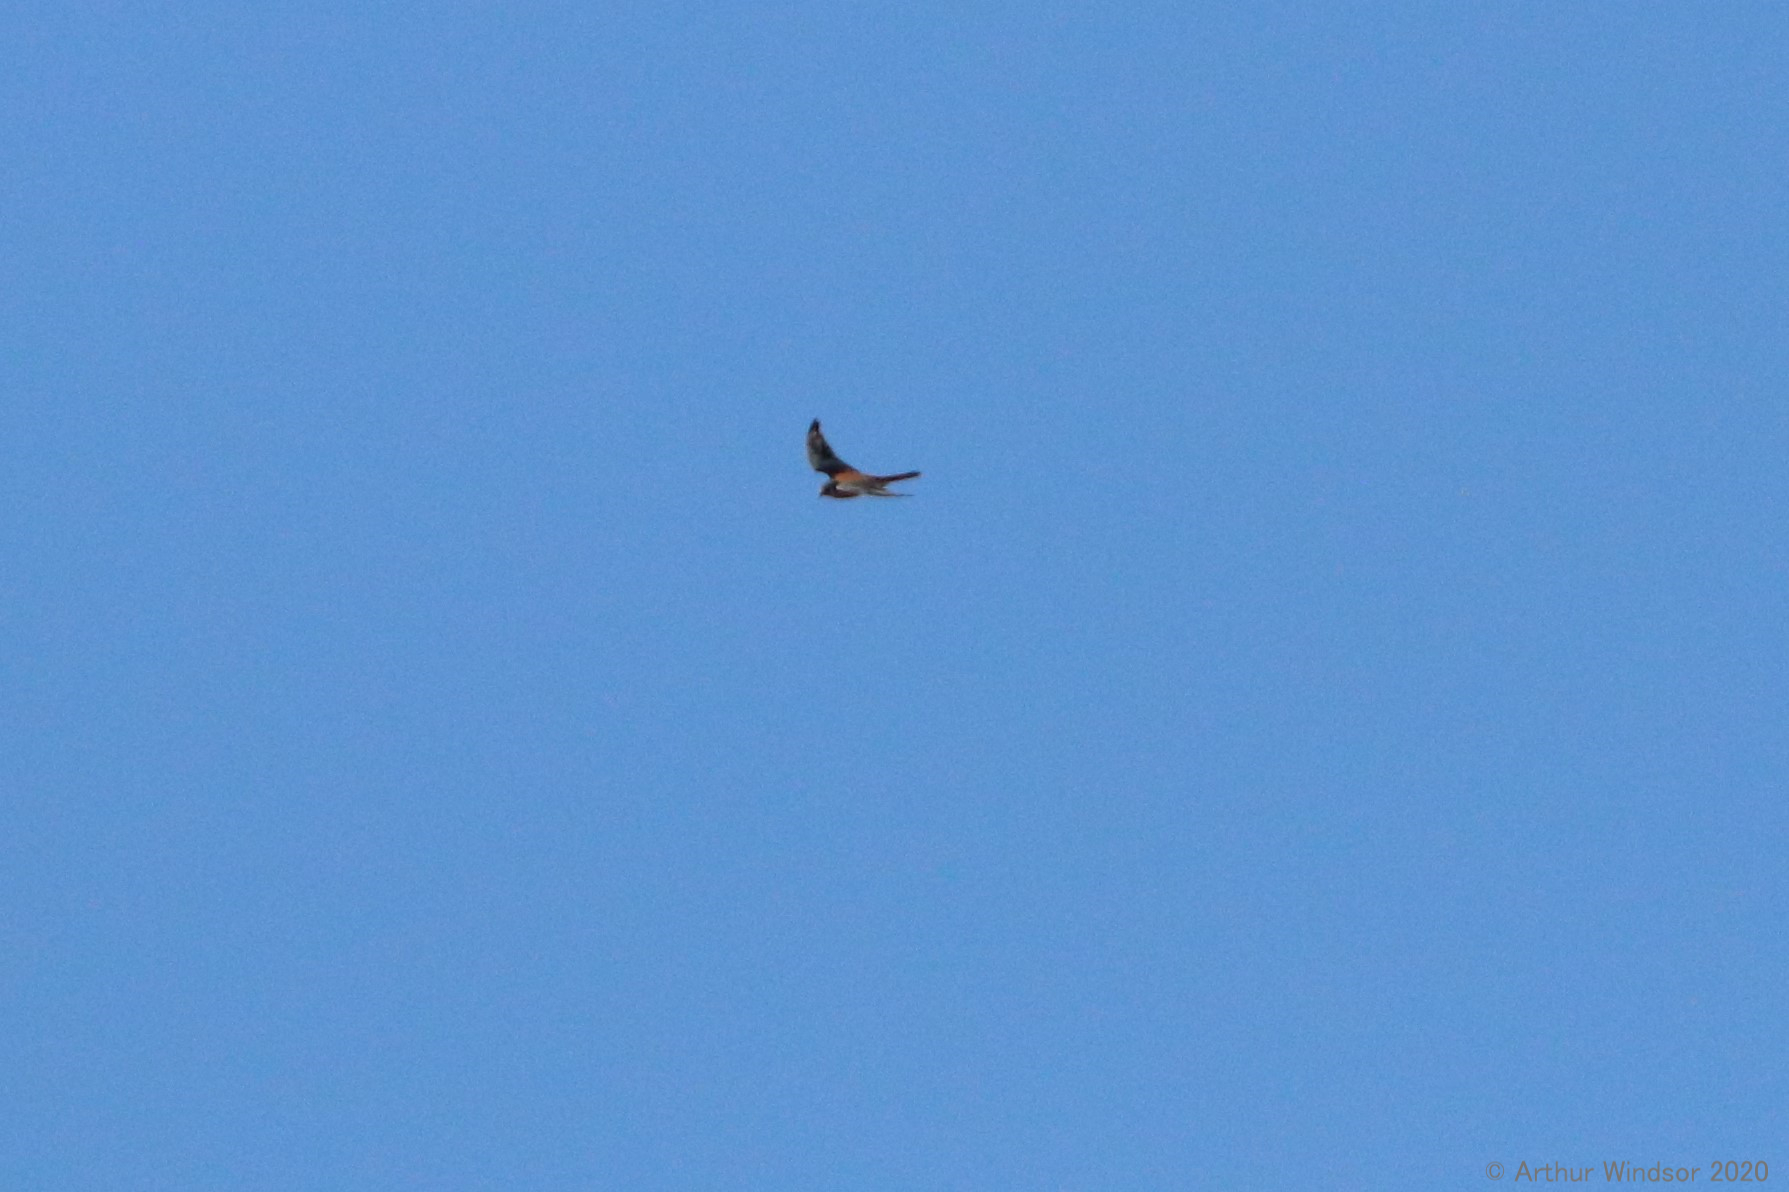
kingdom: Animalia
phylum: Chordata
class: Aves
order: Falconiformes
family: Falconidae
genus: Falco
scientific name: Falco sparverius
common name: American kestrel
